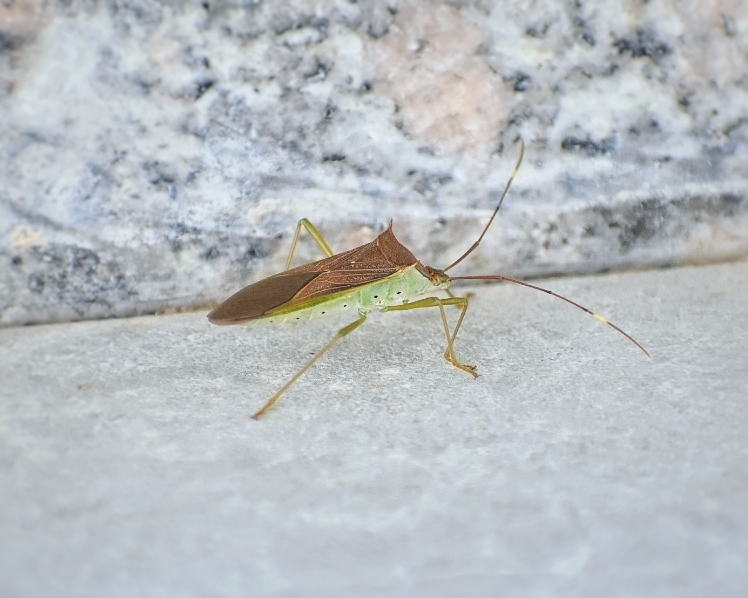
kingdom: Animalia
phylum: Arthropoda
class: Insecta
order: Hemiptera
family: Coreidae
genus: Paradasynus
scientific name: Paradasynus spinosus
